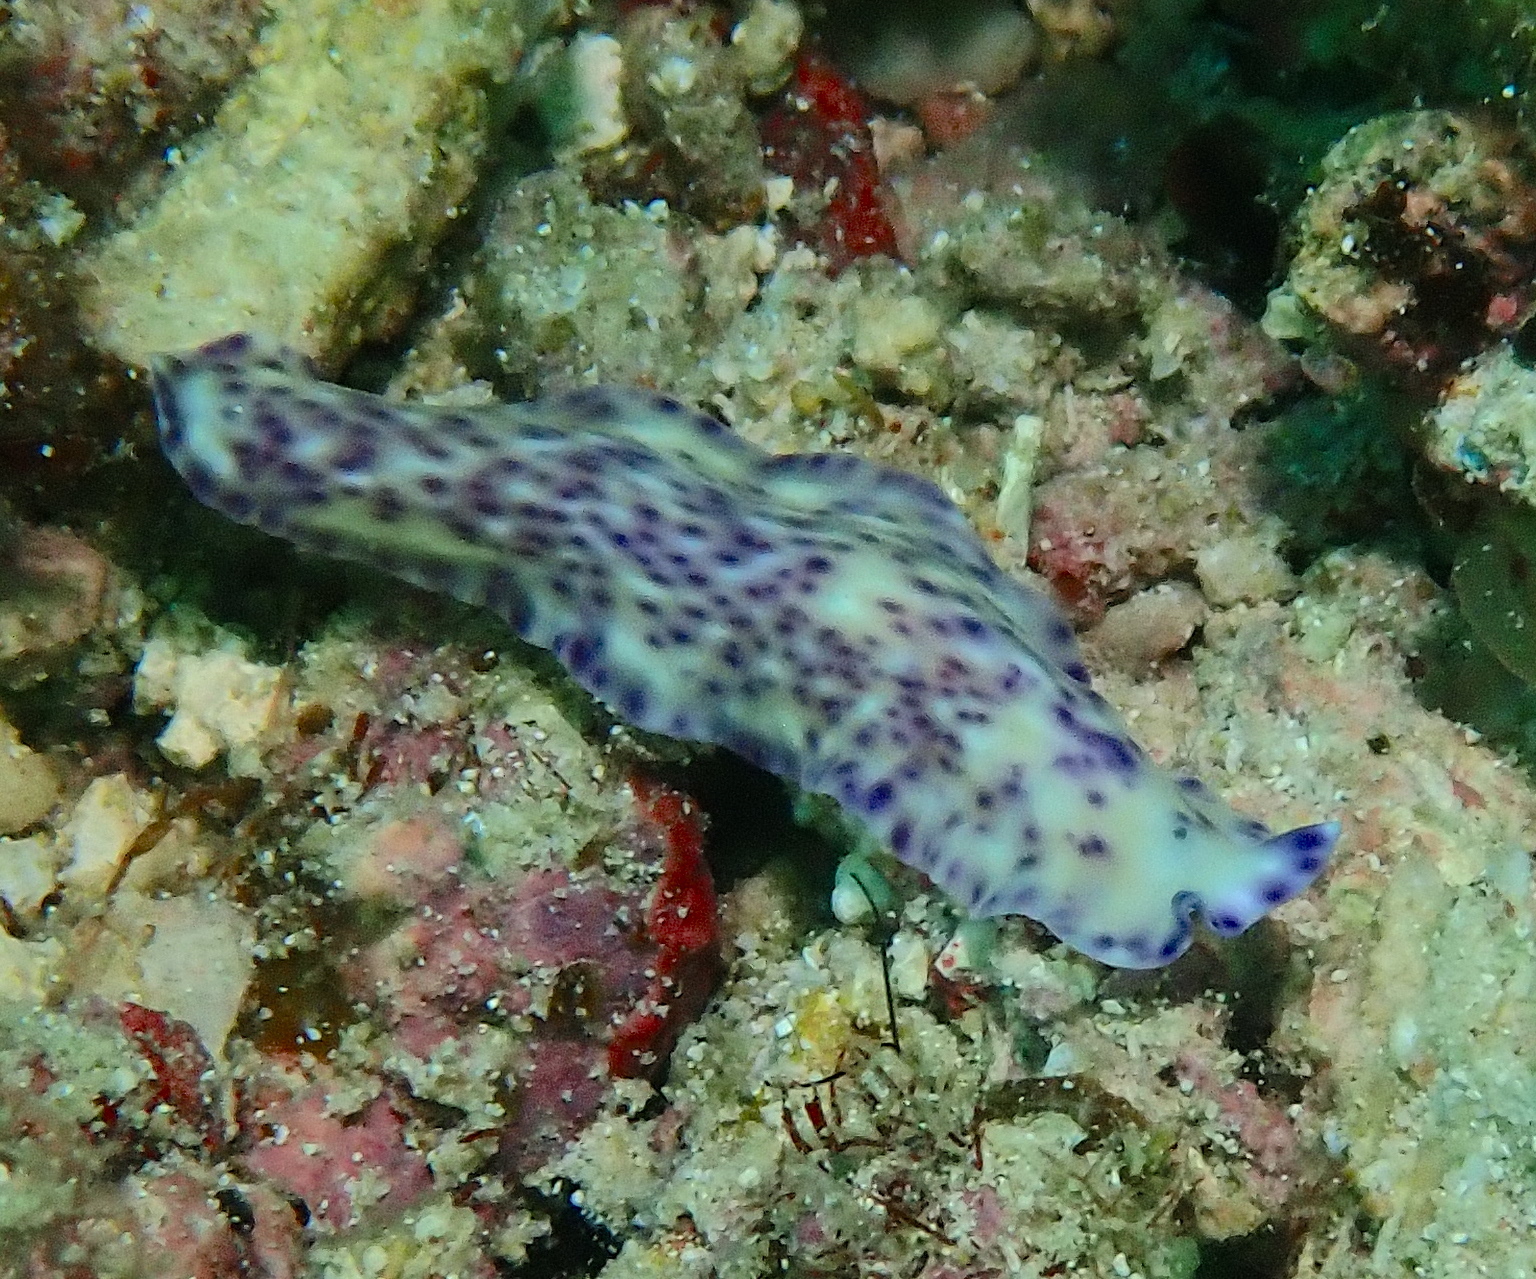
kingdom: Animalia
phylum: Platyhelminthes
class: Turbellaria
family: Pseudocerotidae
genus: Pseudoceros
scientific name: Pseudoceros laingensis
